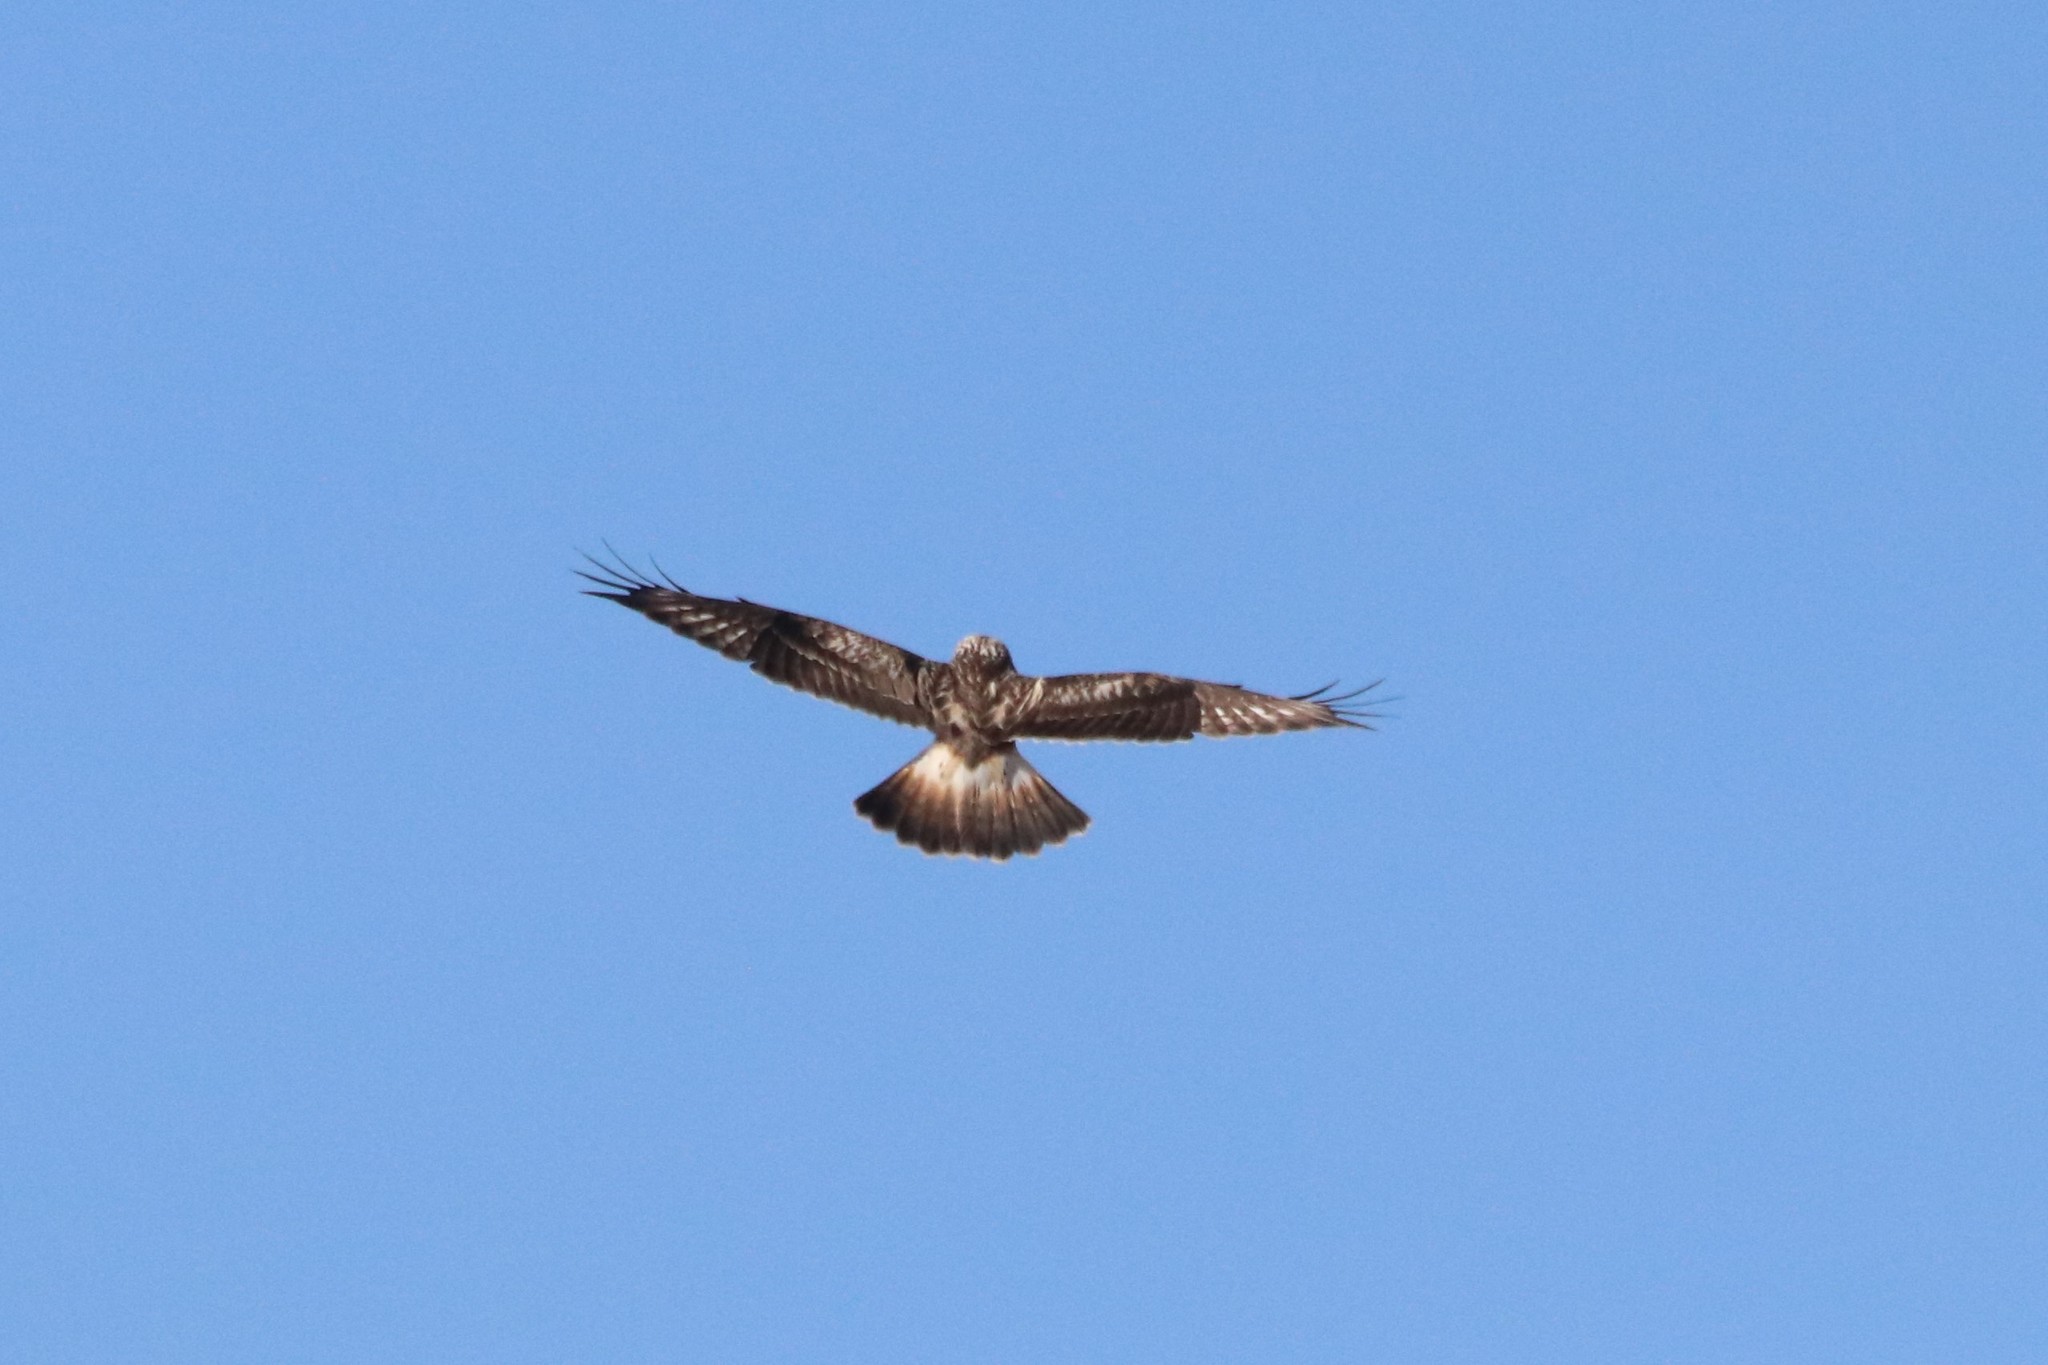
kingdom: Animalia
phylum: Chordata
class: Aves
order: Accipitriformes
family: Accipitridae
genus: Buteo
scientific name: Buteo lagopus
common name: Rough-legged buzzard
